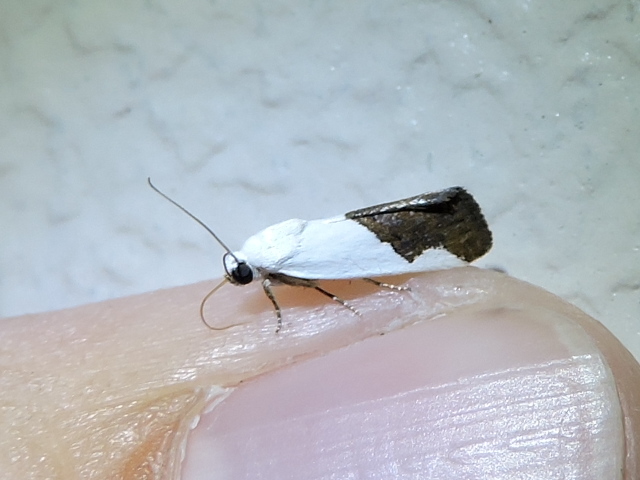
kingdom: Animalia
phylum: Arthropoda
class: Insecta
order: Lepidoptera
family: Noctuidae
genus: Acontia
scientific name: Acontia heonyx
